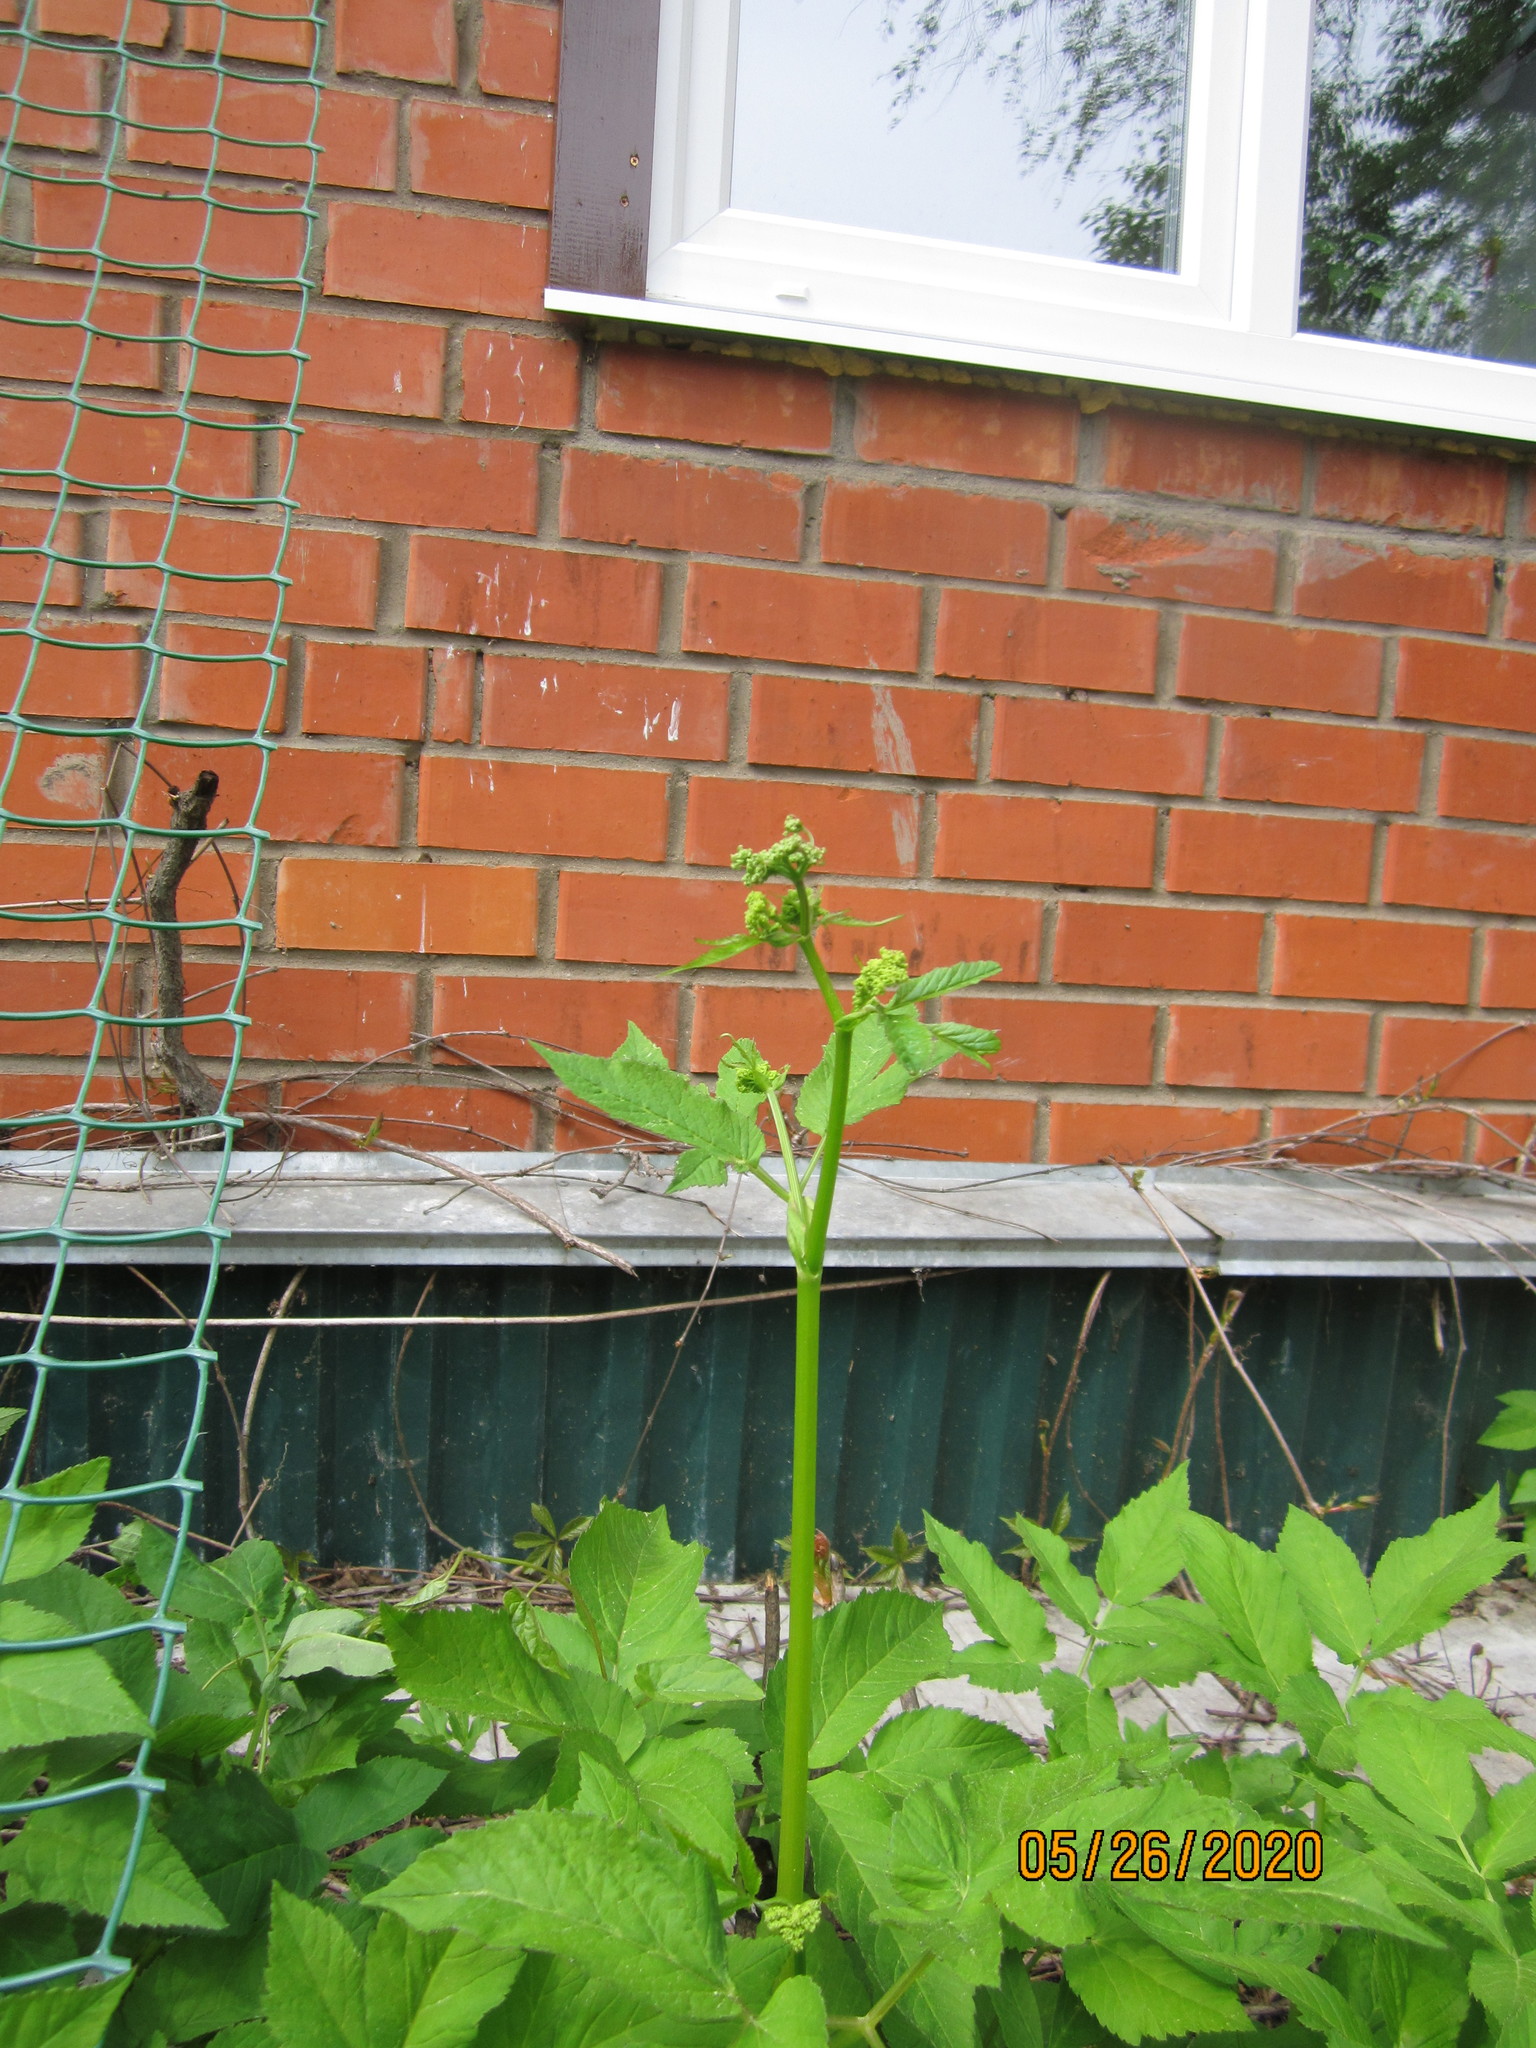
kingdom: Plantae
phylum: Tracheophyta
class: Magnoliopsida
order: Apiales
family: Apiaceae
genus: Aegopodium
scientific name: Aegopodium podagraria
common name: Ground-elder
